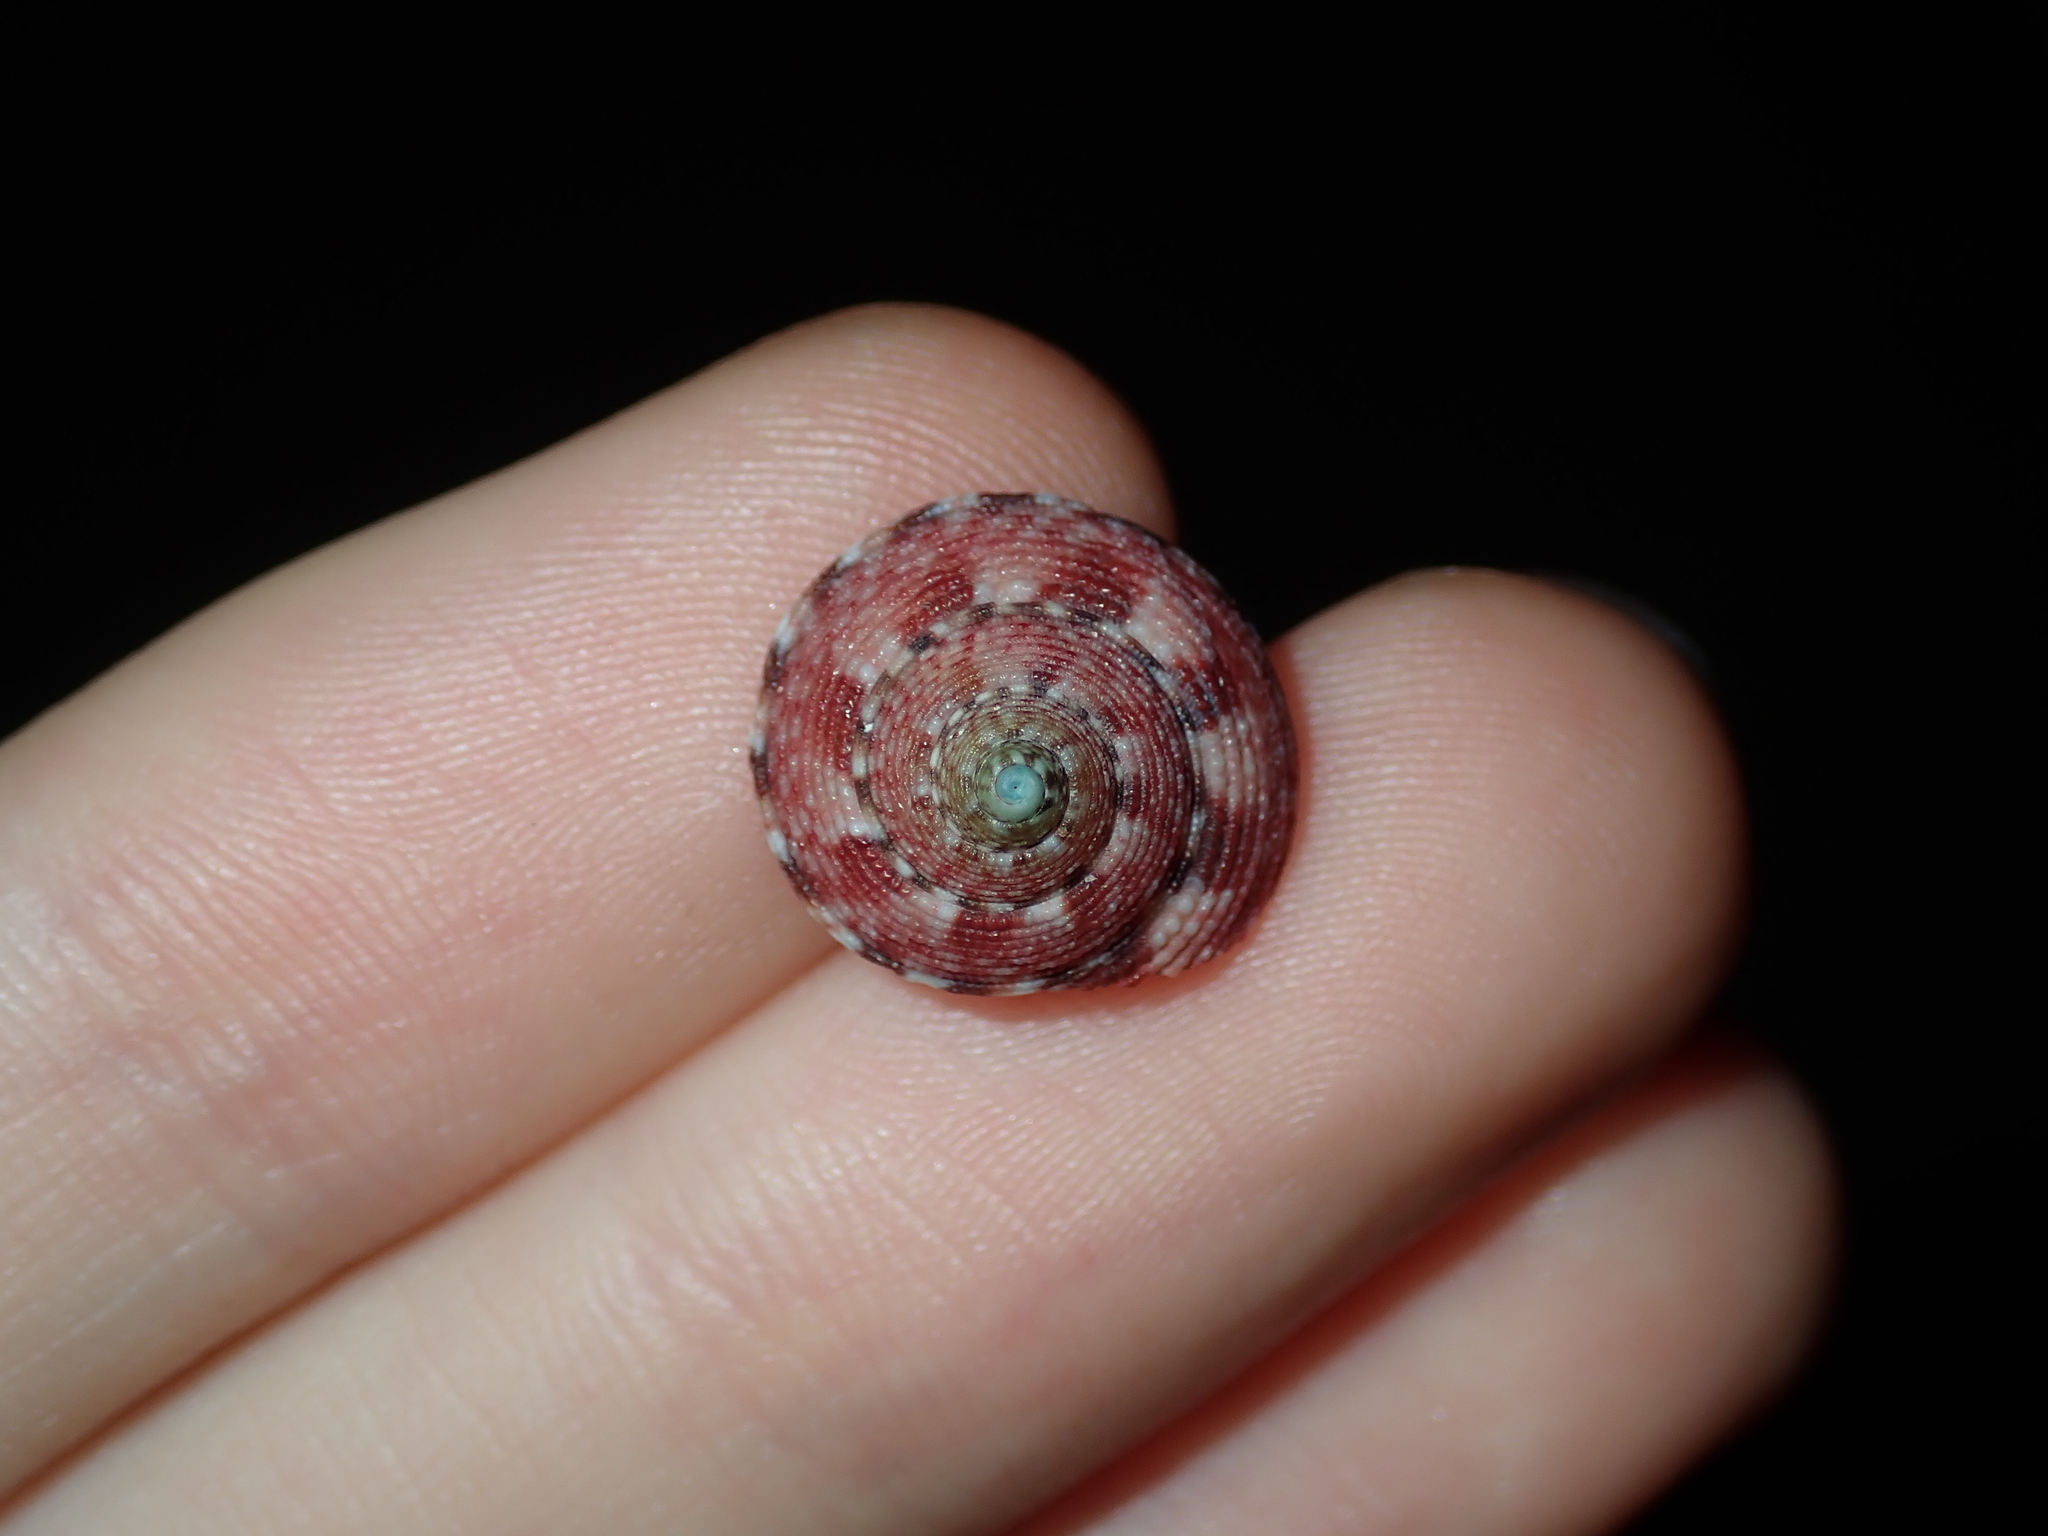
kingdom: Animalia
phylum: Mollusca
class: Gastropoda
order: Trochida
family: Trochidae
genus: Clanculus
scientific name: Clanculus brunneus
